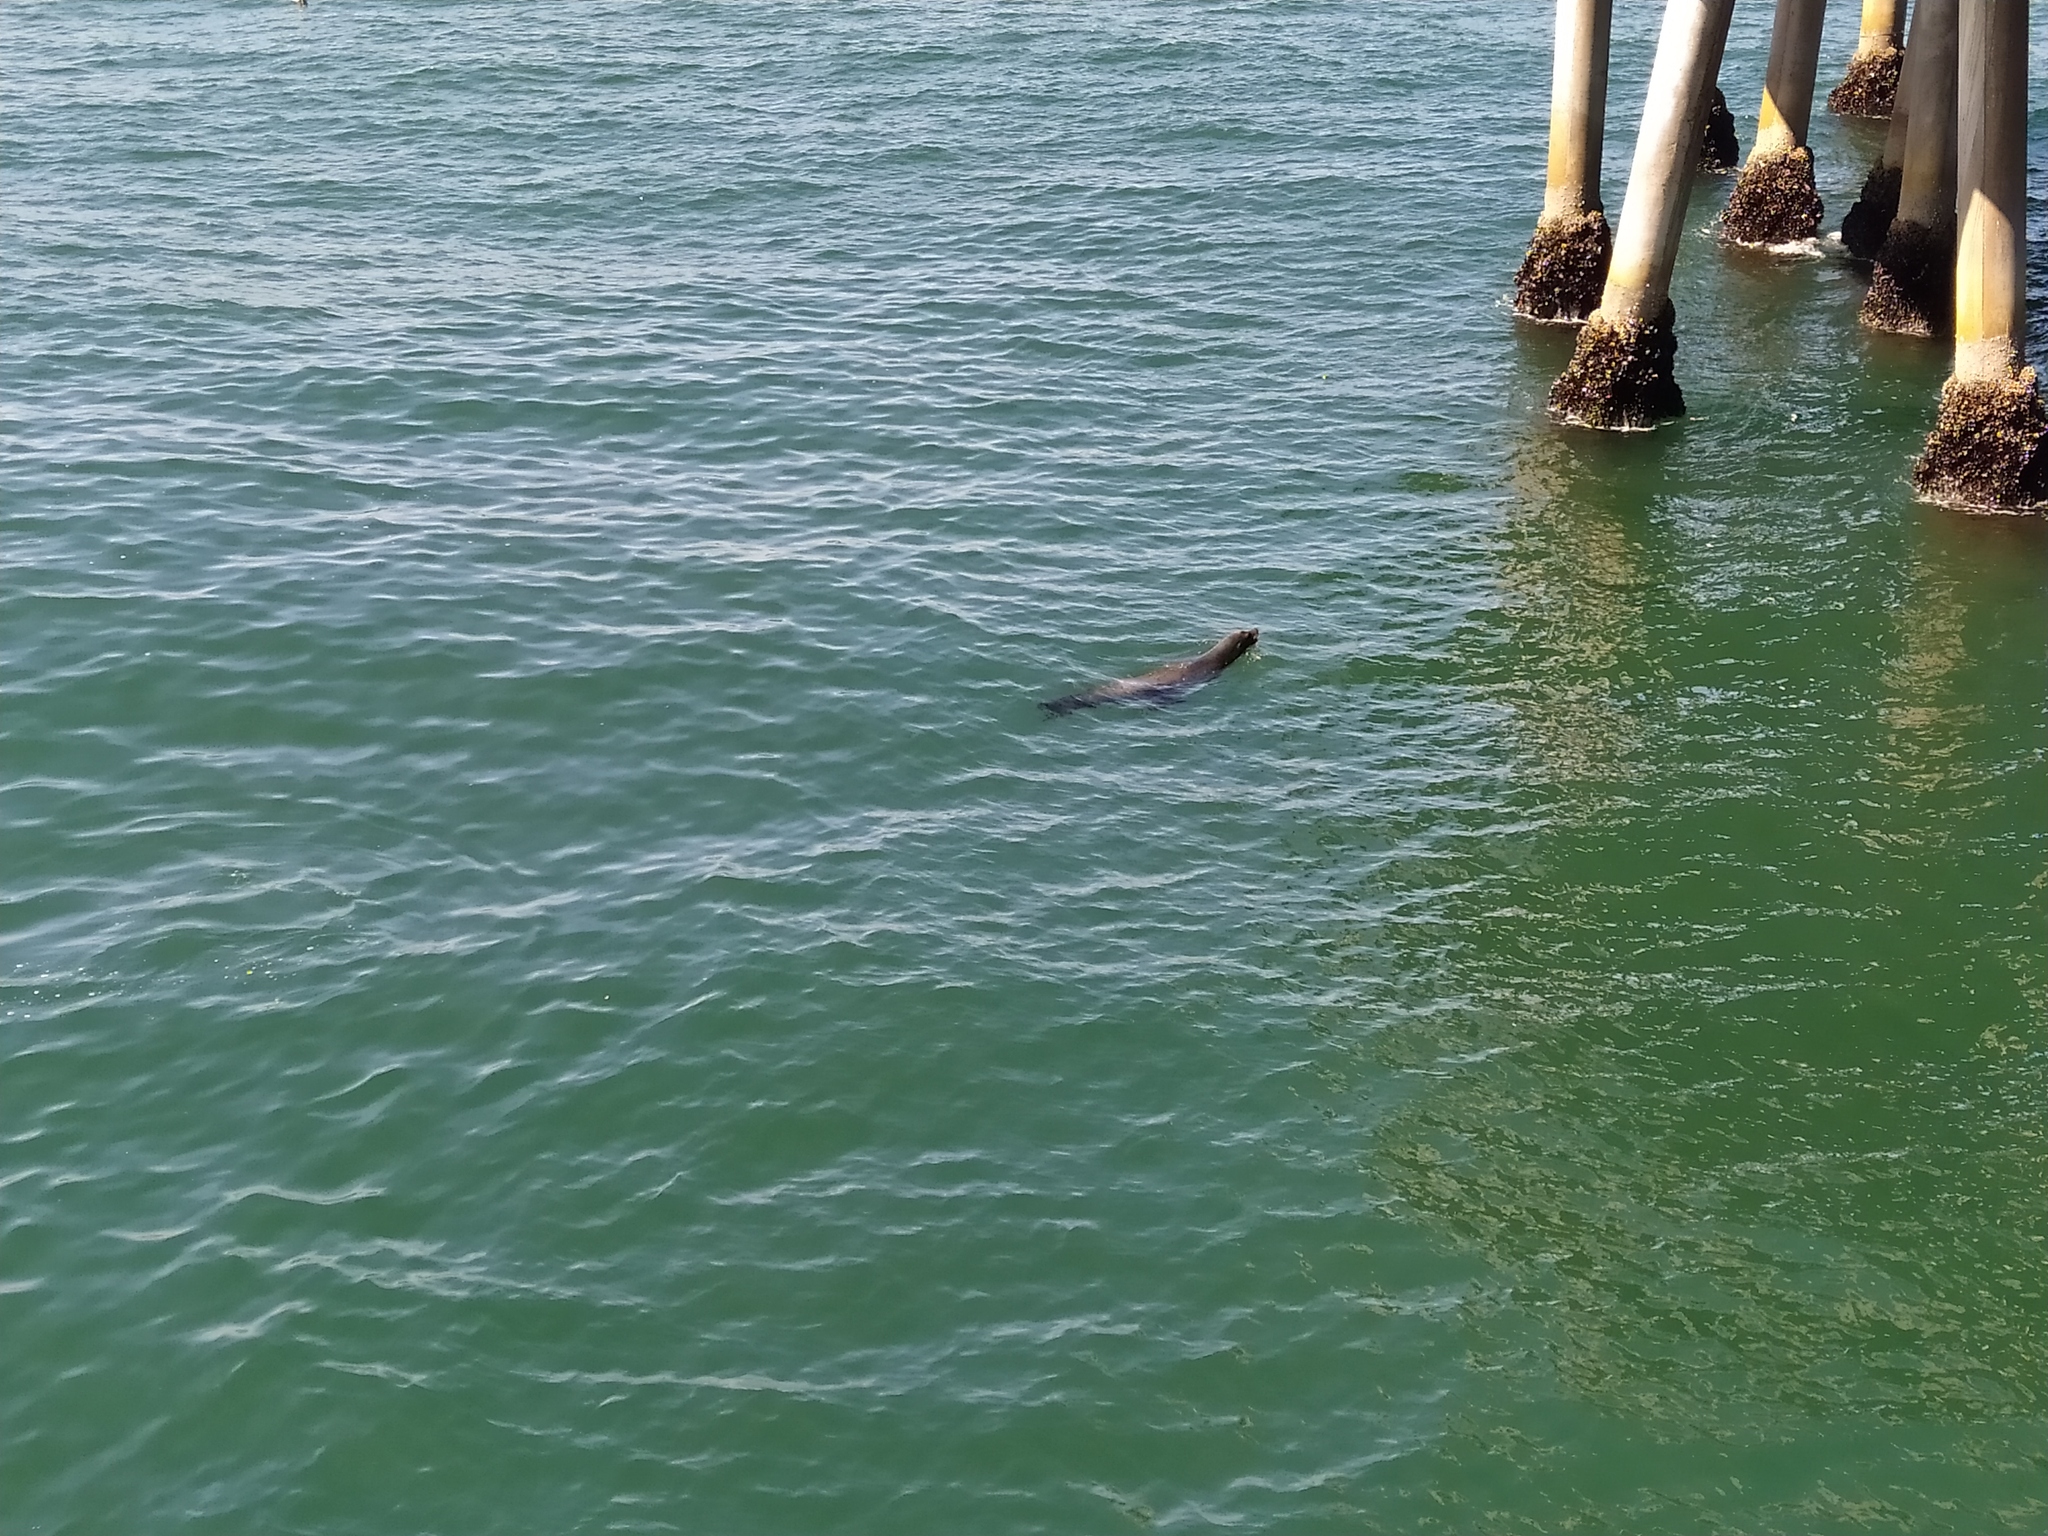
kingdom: Animalia
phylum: Chordata
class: Mammalia
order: Carnivora
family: Otariidae
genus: Zalophus
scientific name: Zalophus californianus
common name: California sea lion
